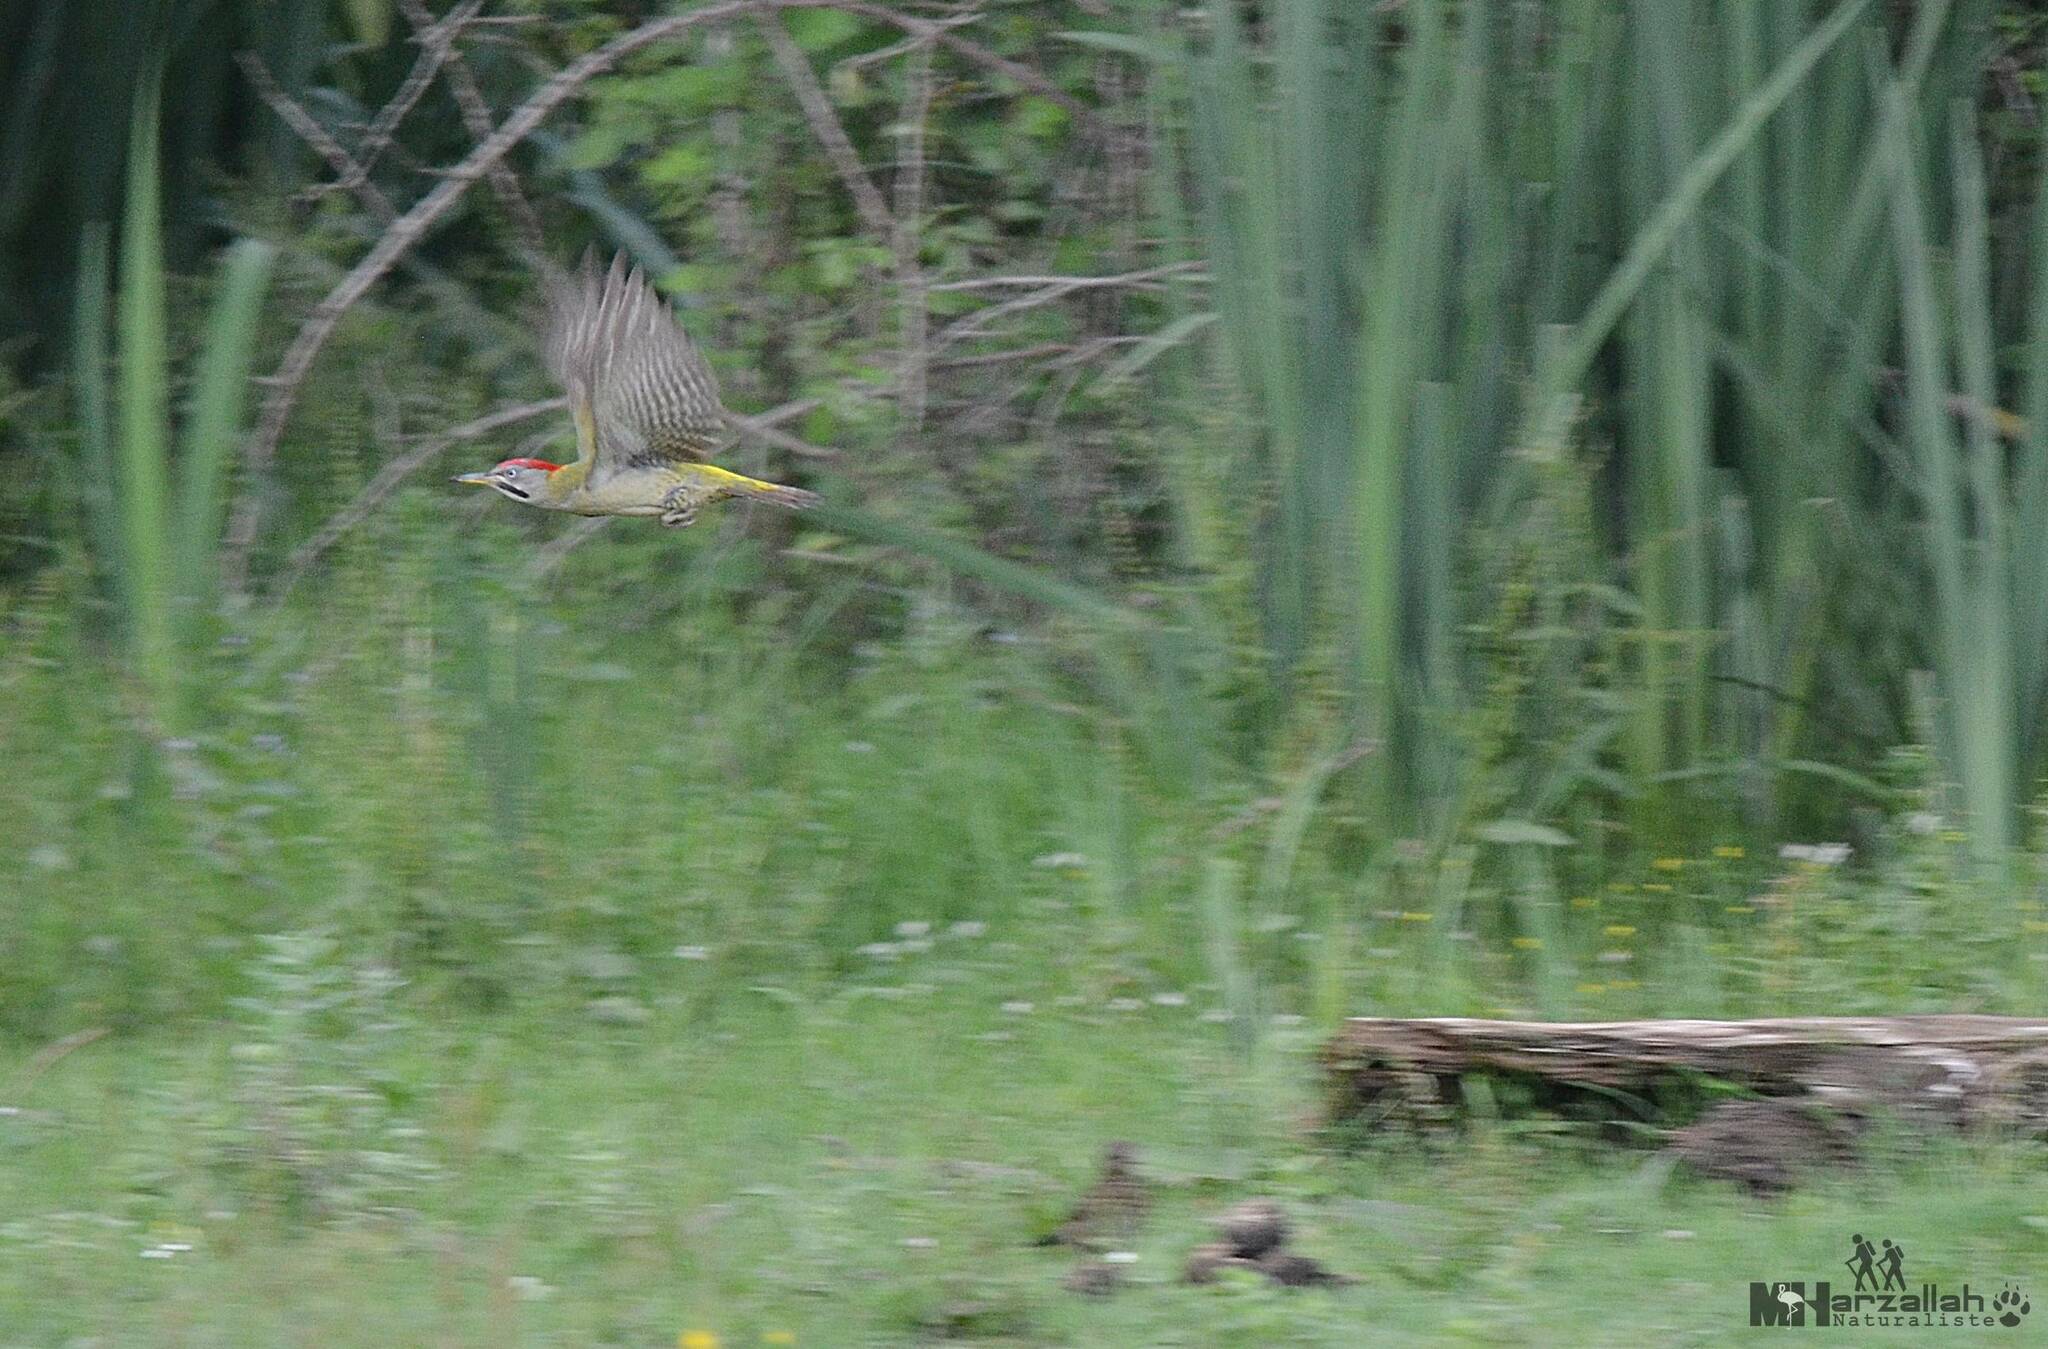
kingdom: Animalia
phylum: Chordata
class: Aves
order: Piciformes
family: Picidae
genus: Picus
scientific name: Picus vaillantii
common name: Levaillant's woodpecker
